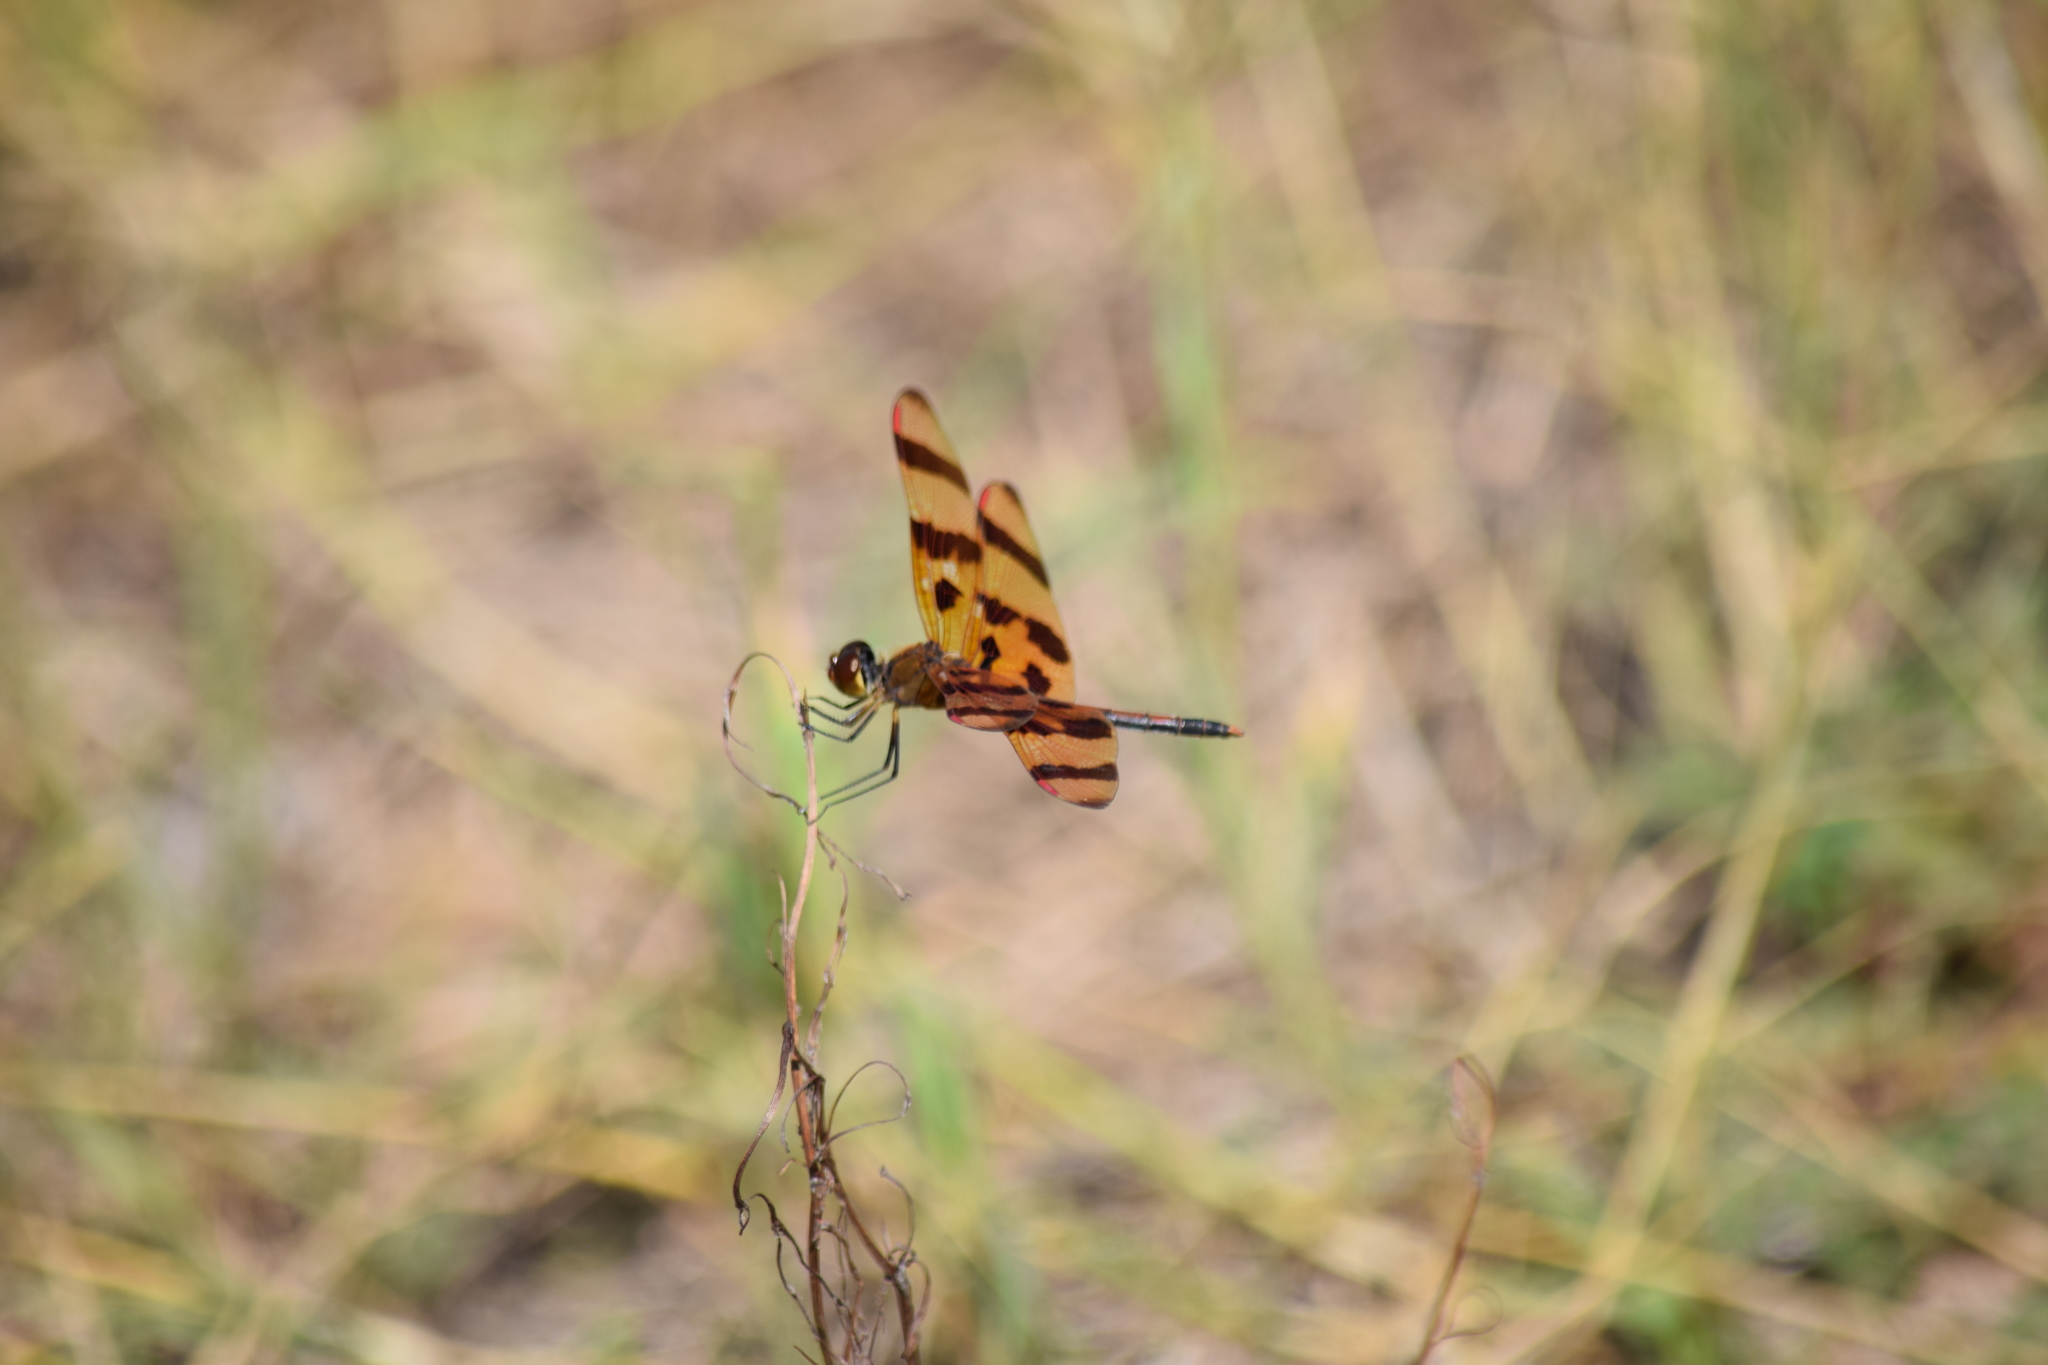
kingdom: Animalia
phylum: Arthropoda
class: Insecta
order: Odonata
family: Libellulidae
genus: Celithemis
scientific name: Celithemis eponina
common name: Halloween pennant
